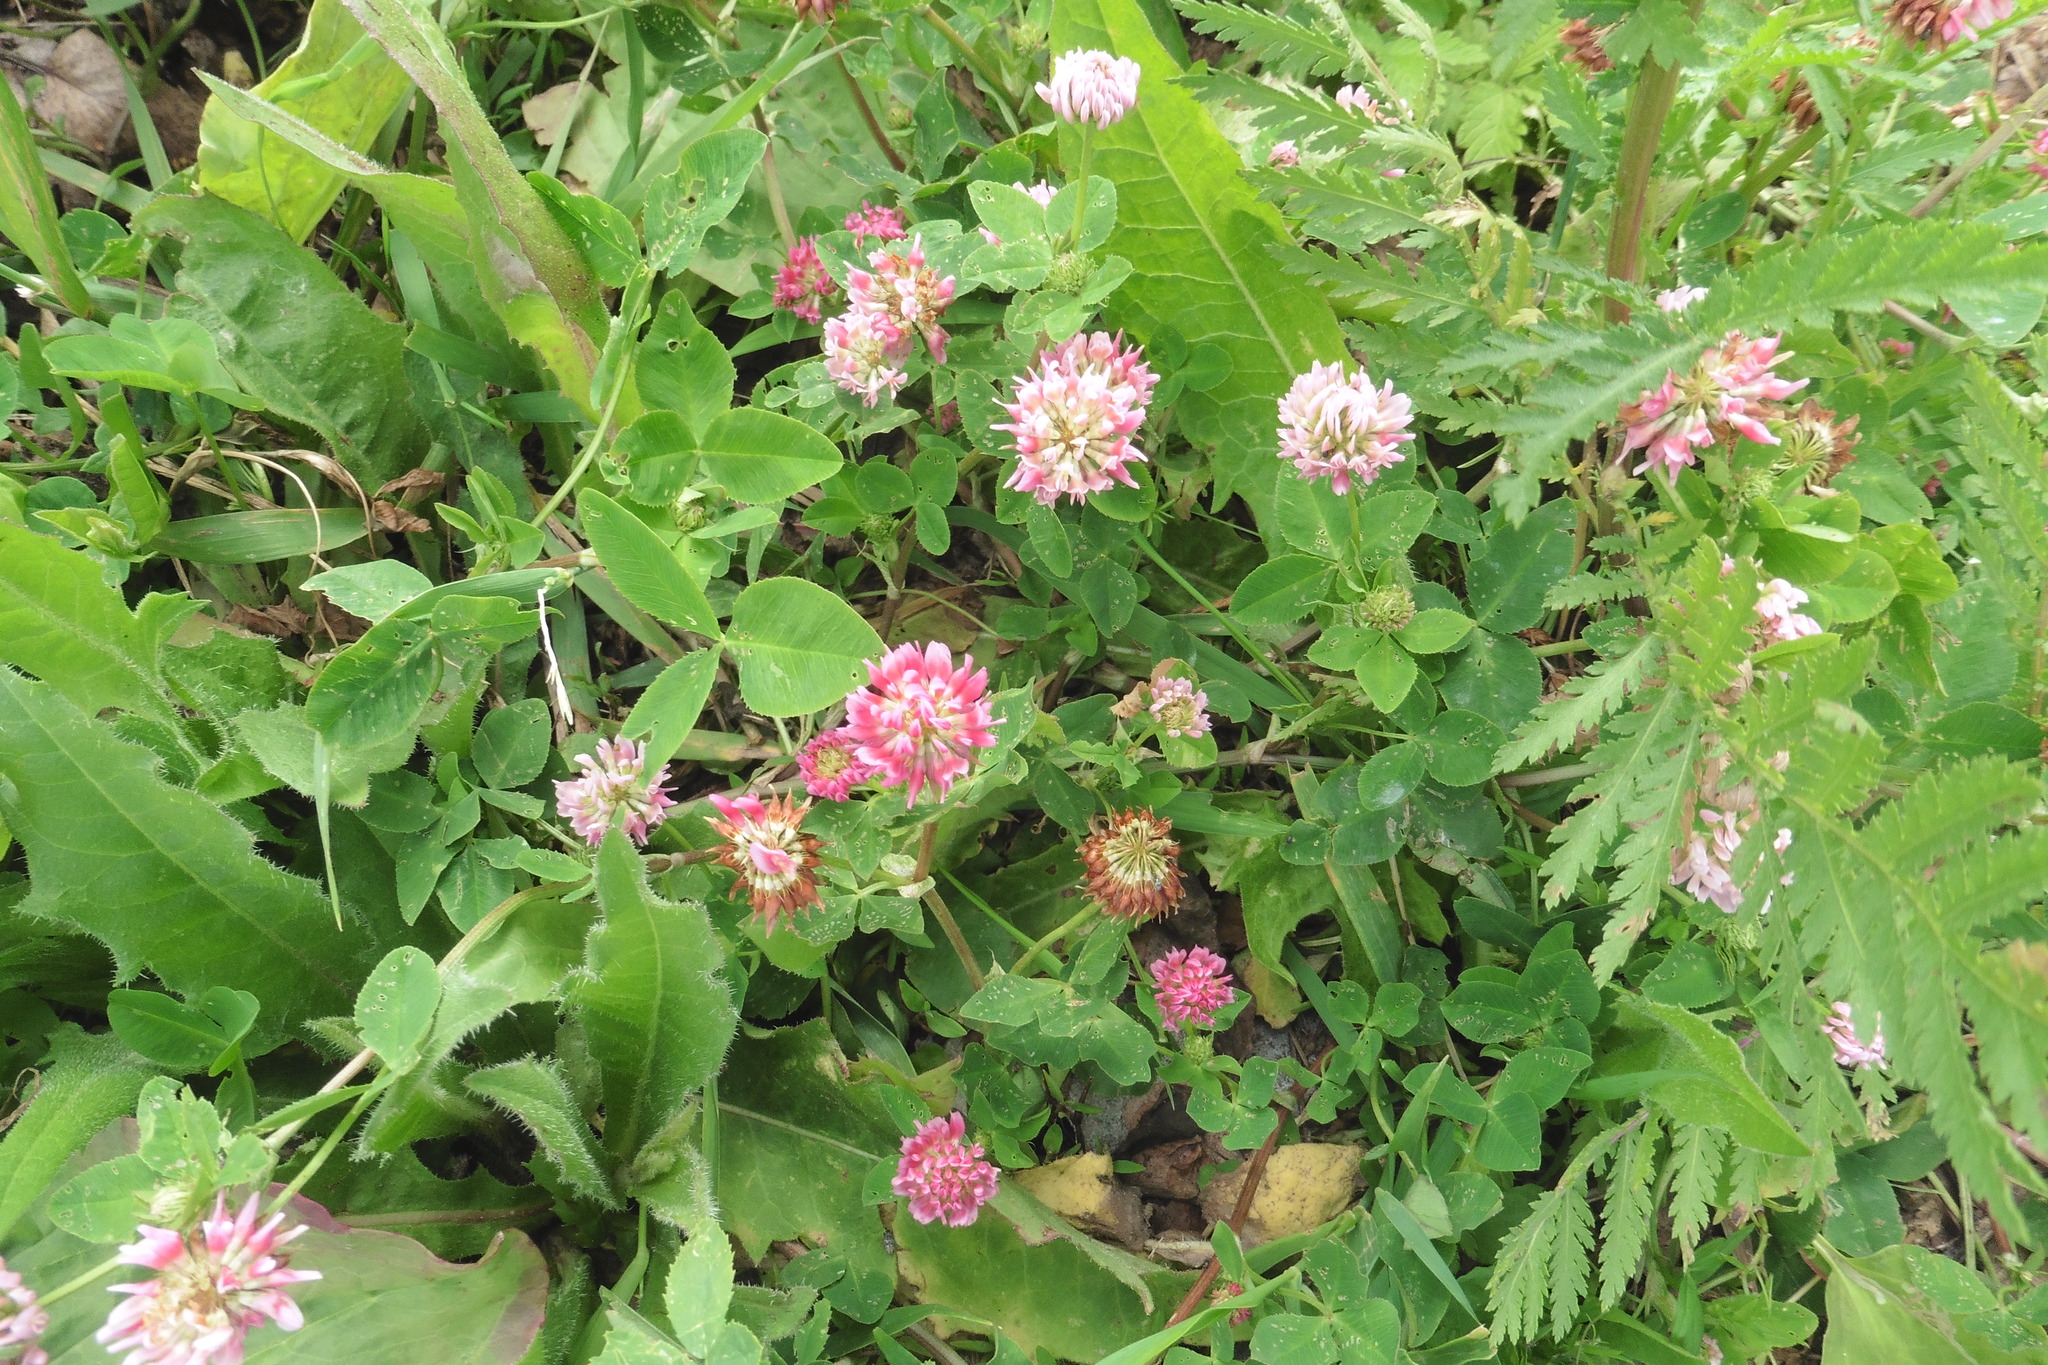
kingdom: Plantae
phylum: Tracheophyta
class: Magnoliopsida
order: Fabales
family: Fabaceae
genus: Trifolium
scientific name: Trifolium hybridum
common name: Alsike clover
